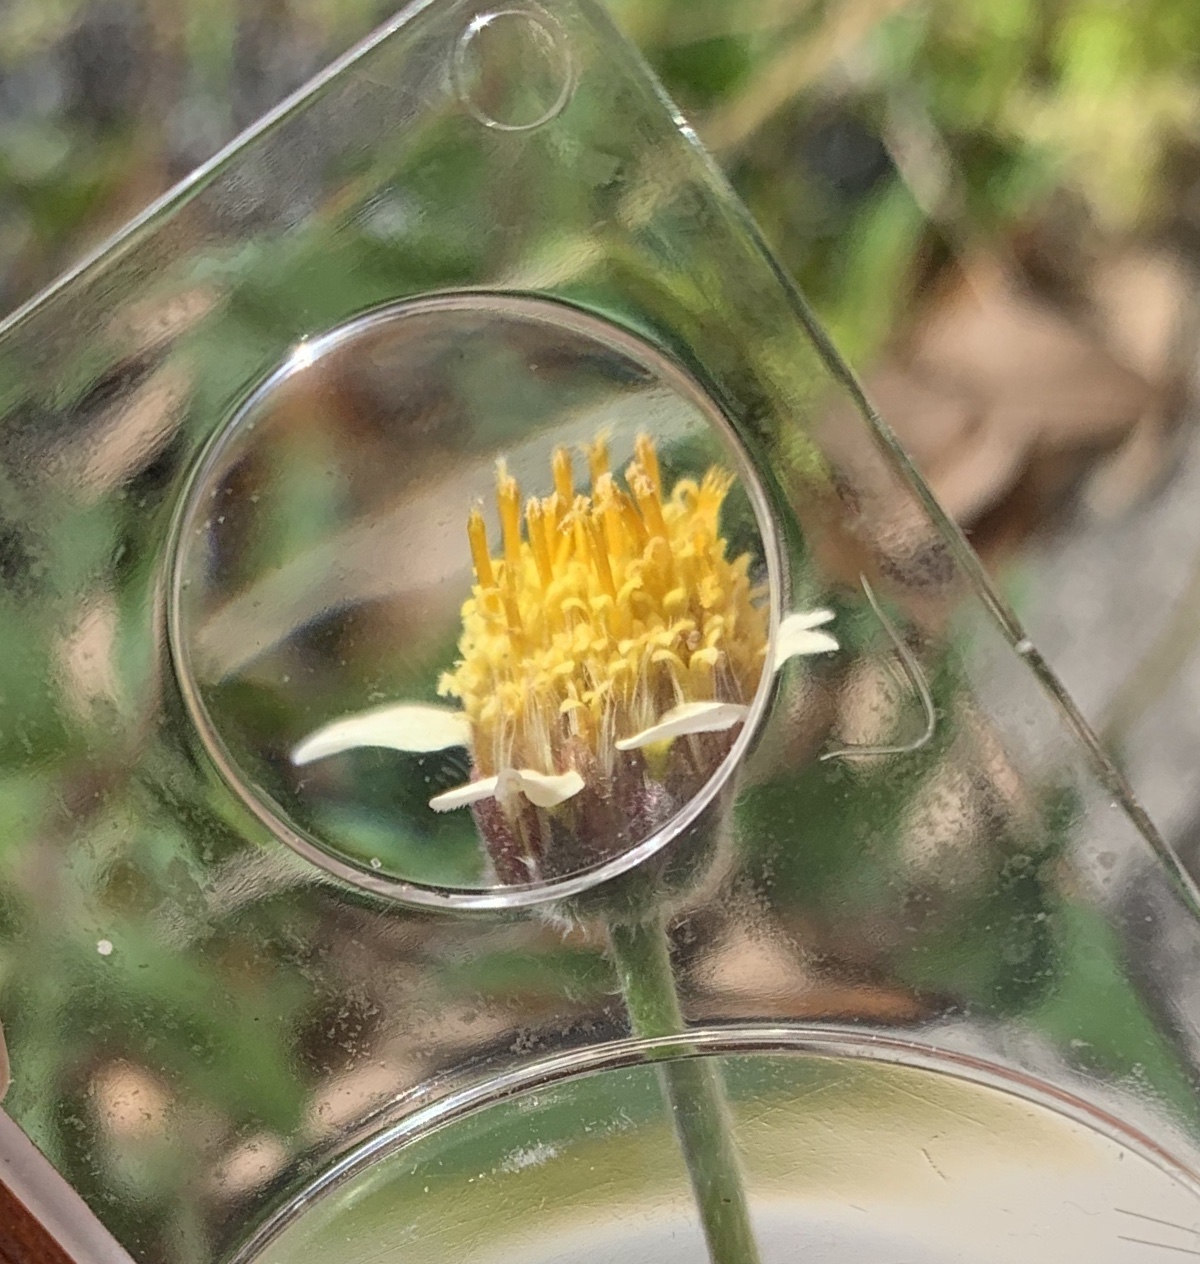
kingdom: Plantae
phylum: Tracheophyta
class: Magnoliopsida
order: Asterales
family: Asteraceae
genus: Tridax
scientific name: Tridax procumbens
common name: Coatbuttons
